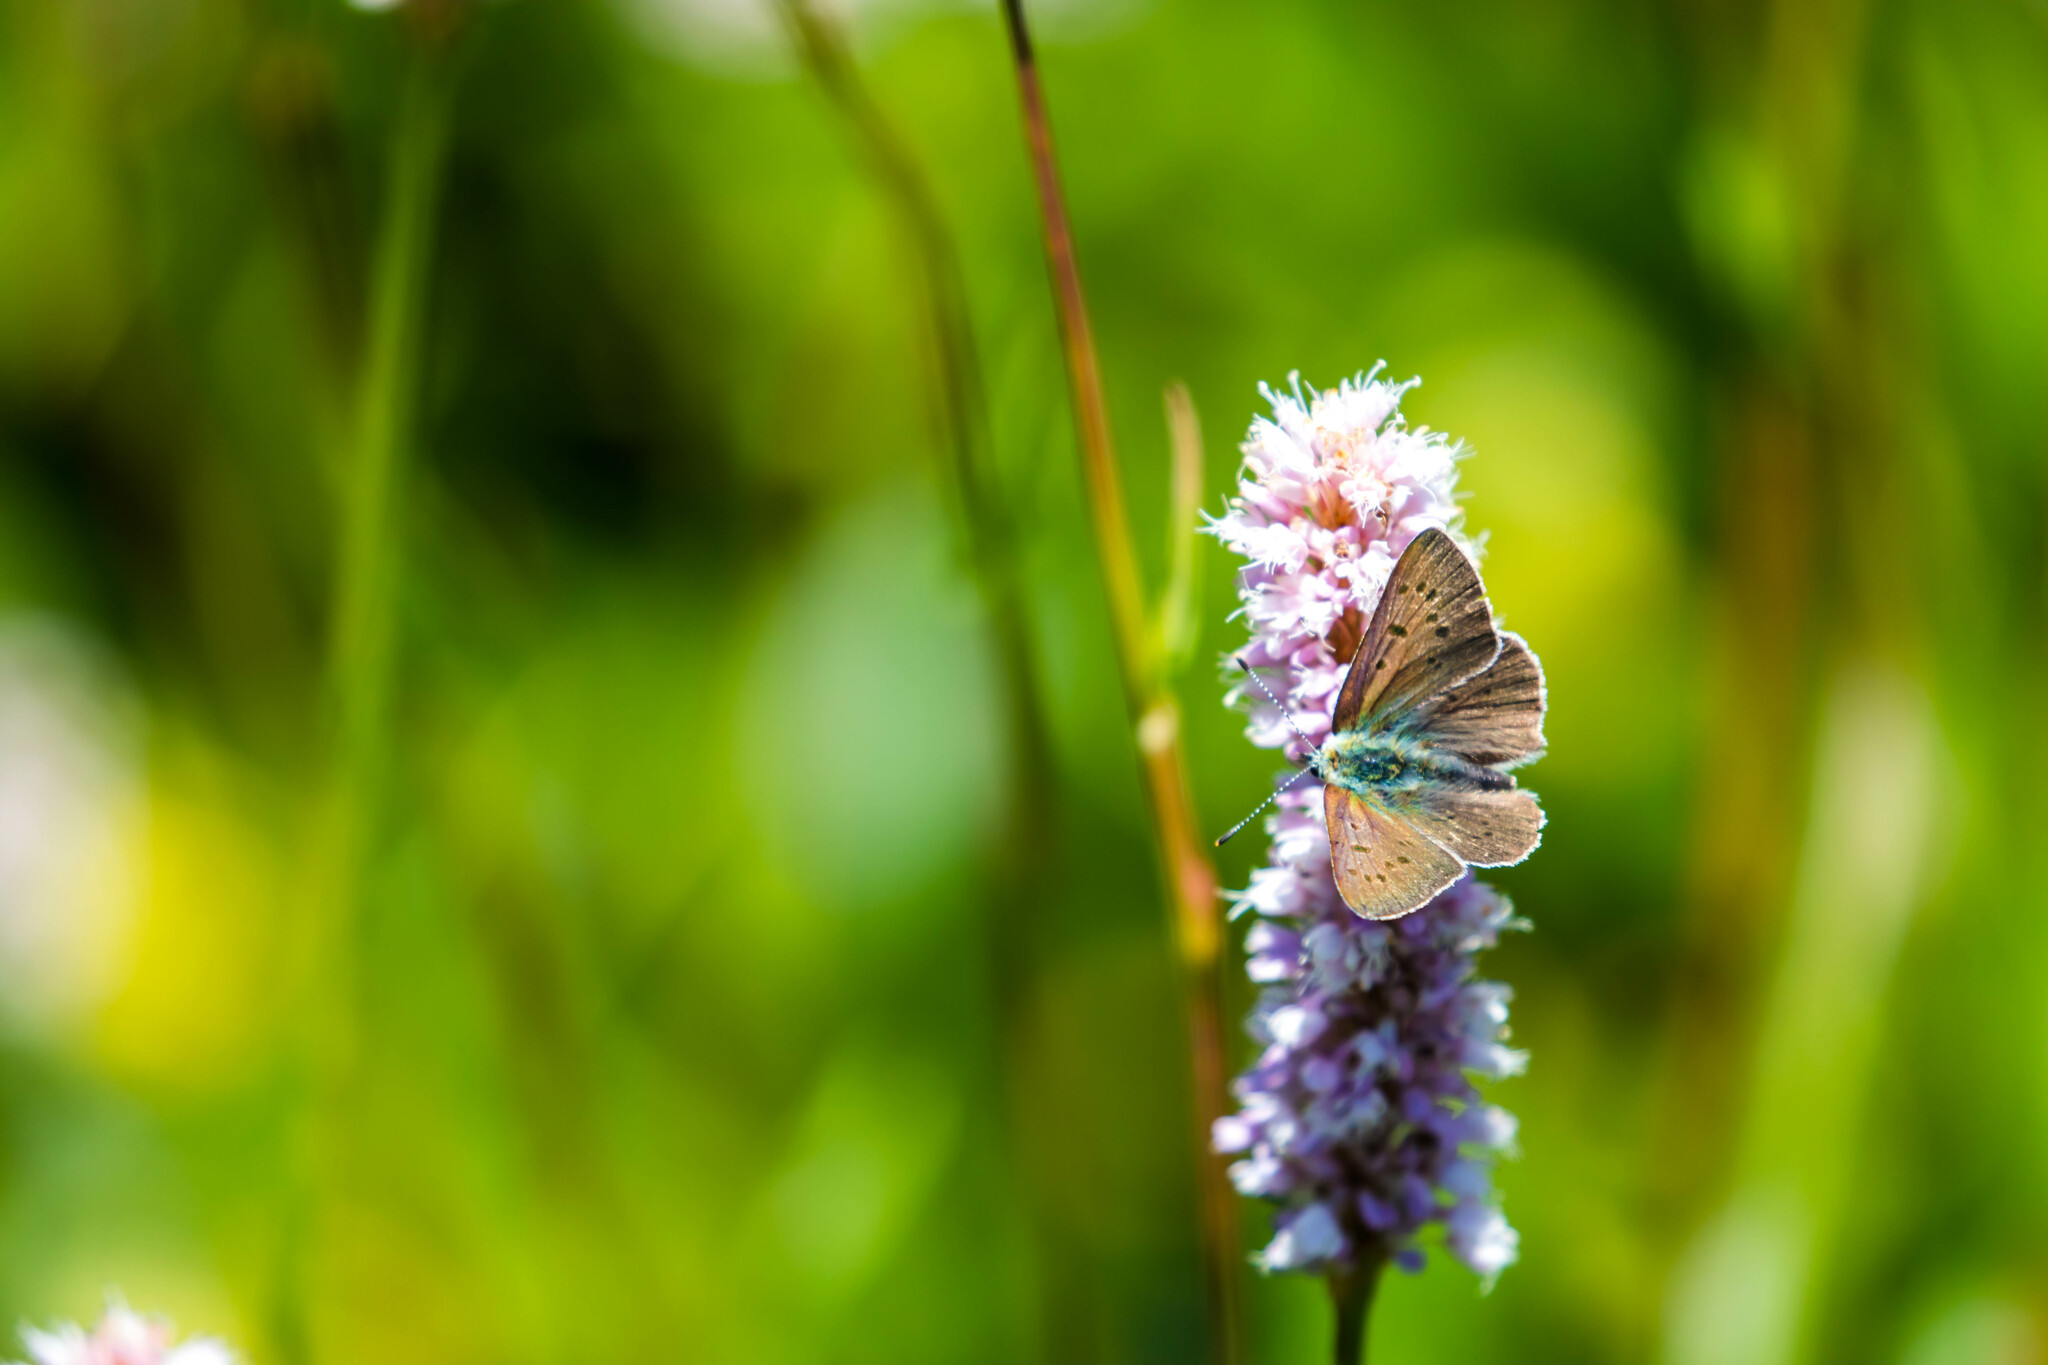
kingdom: Animalia
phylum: Arthropoda
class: Insecta
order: Lepidoptera
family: Lycaenidae
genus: Loweia
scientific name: Loweia tityrus
